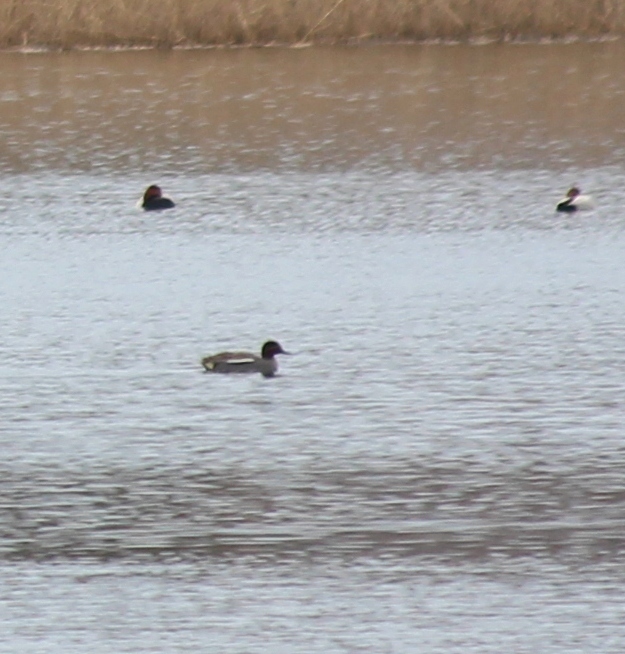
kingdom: Animalia
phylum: Chordata
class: Aves
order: Anseriformes
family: Anatidae
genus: Anas
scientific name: Anas crecca
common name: Eurasian teal
